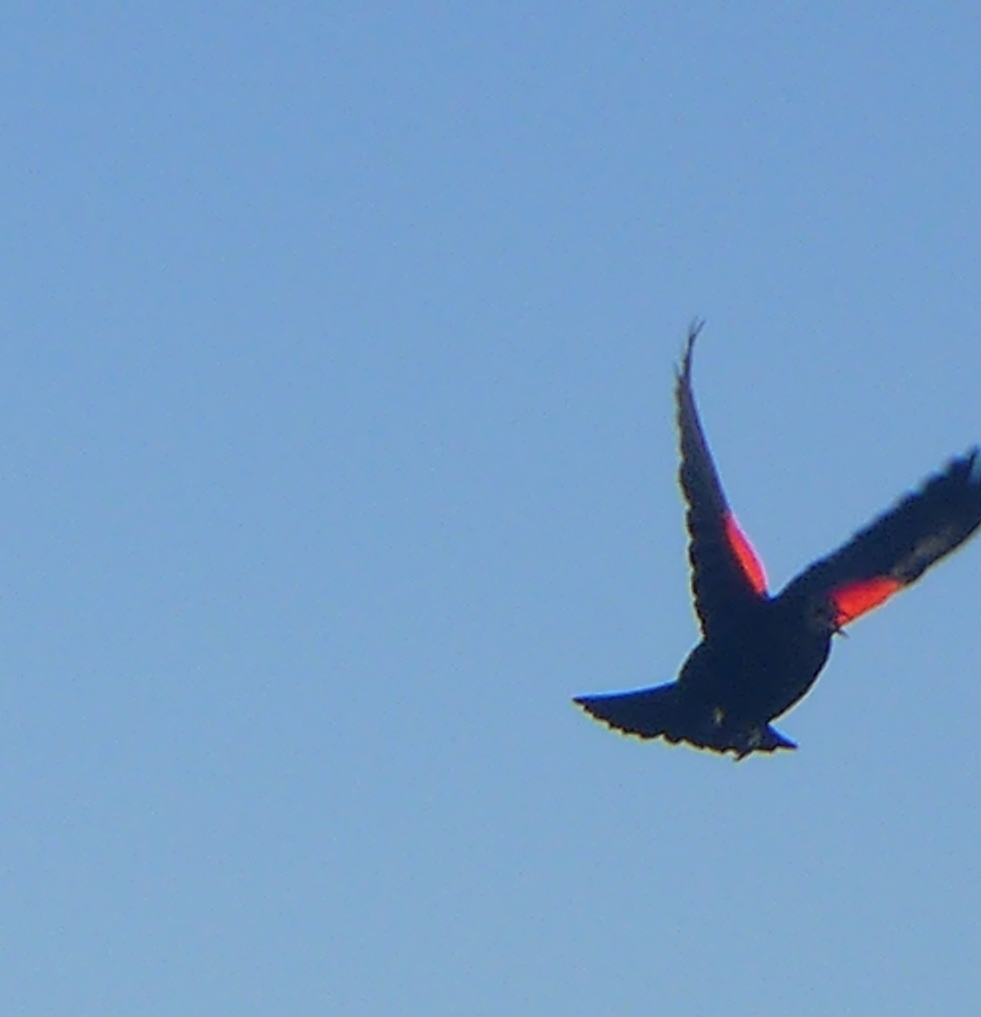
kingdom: Animalia
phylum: Chordata
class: Aves
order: Passeriformes
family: Icteridae
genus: Agelaius
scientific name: Agelaius phoeniceus
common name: Red-winged blackbird
